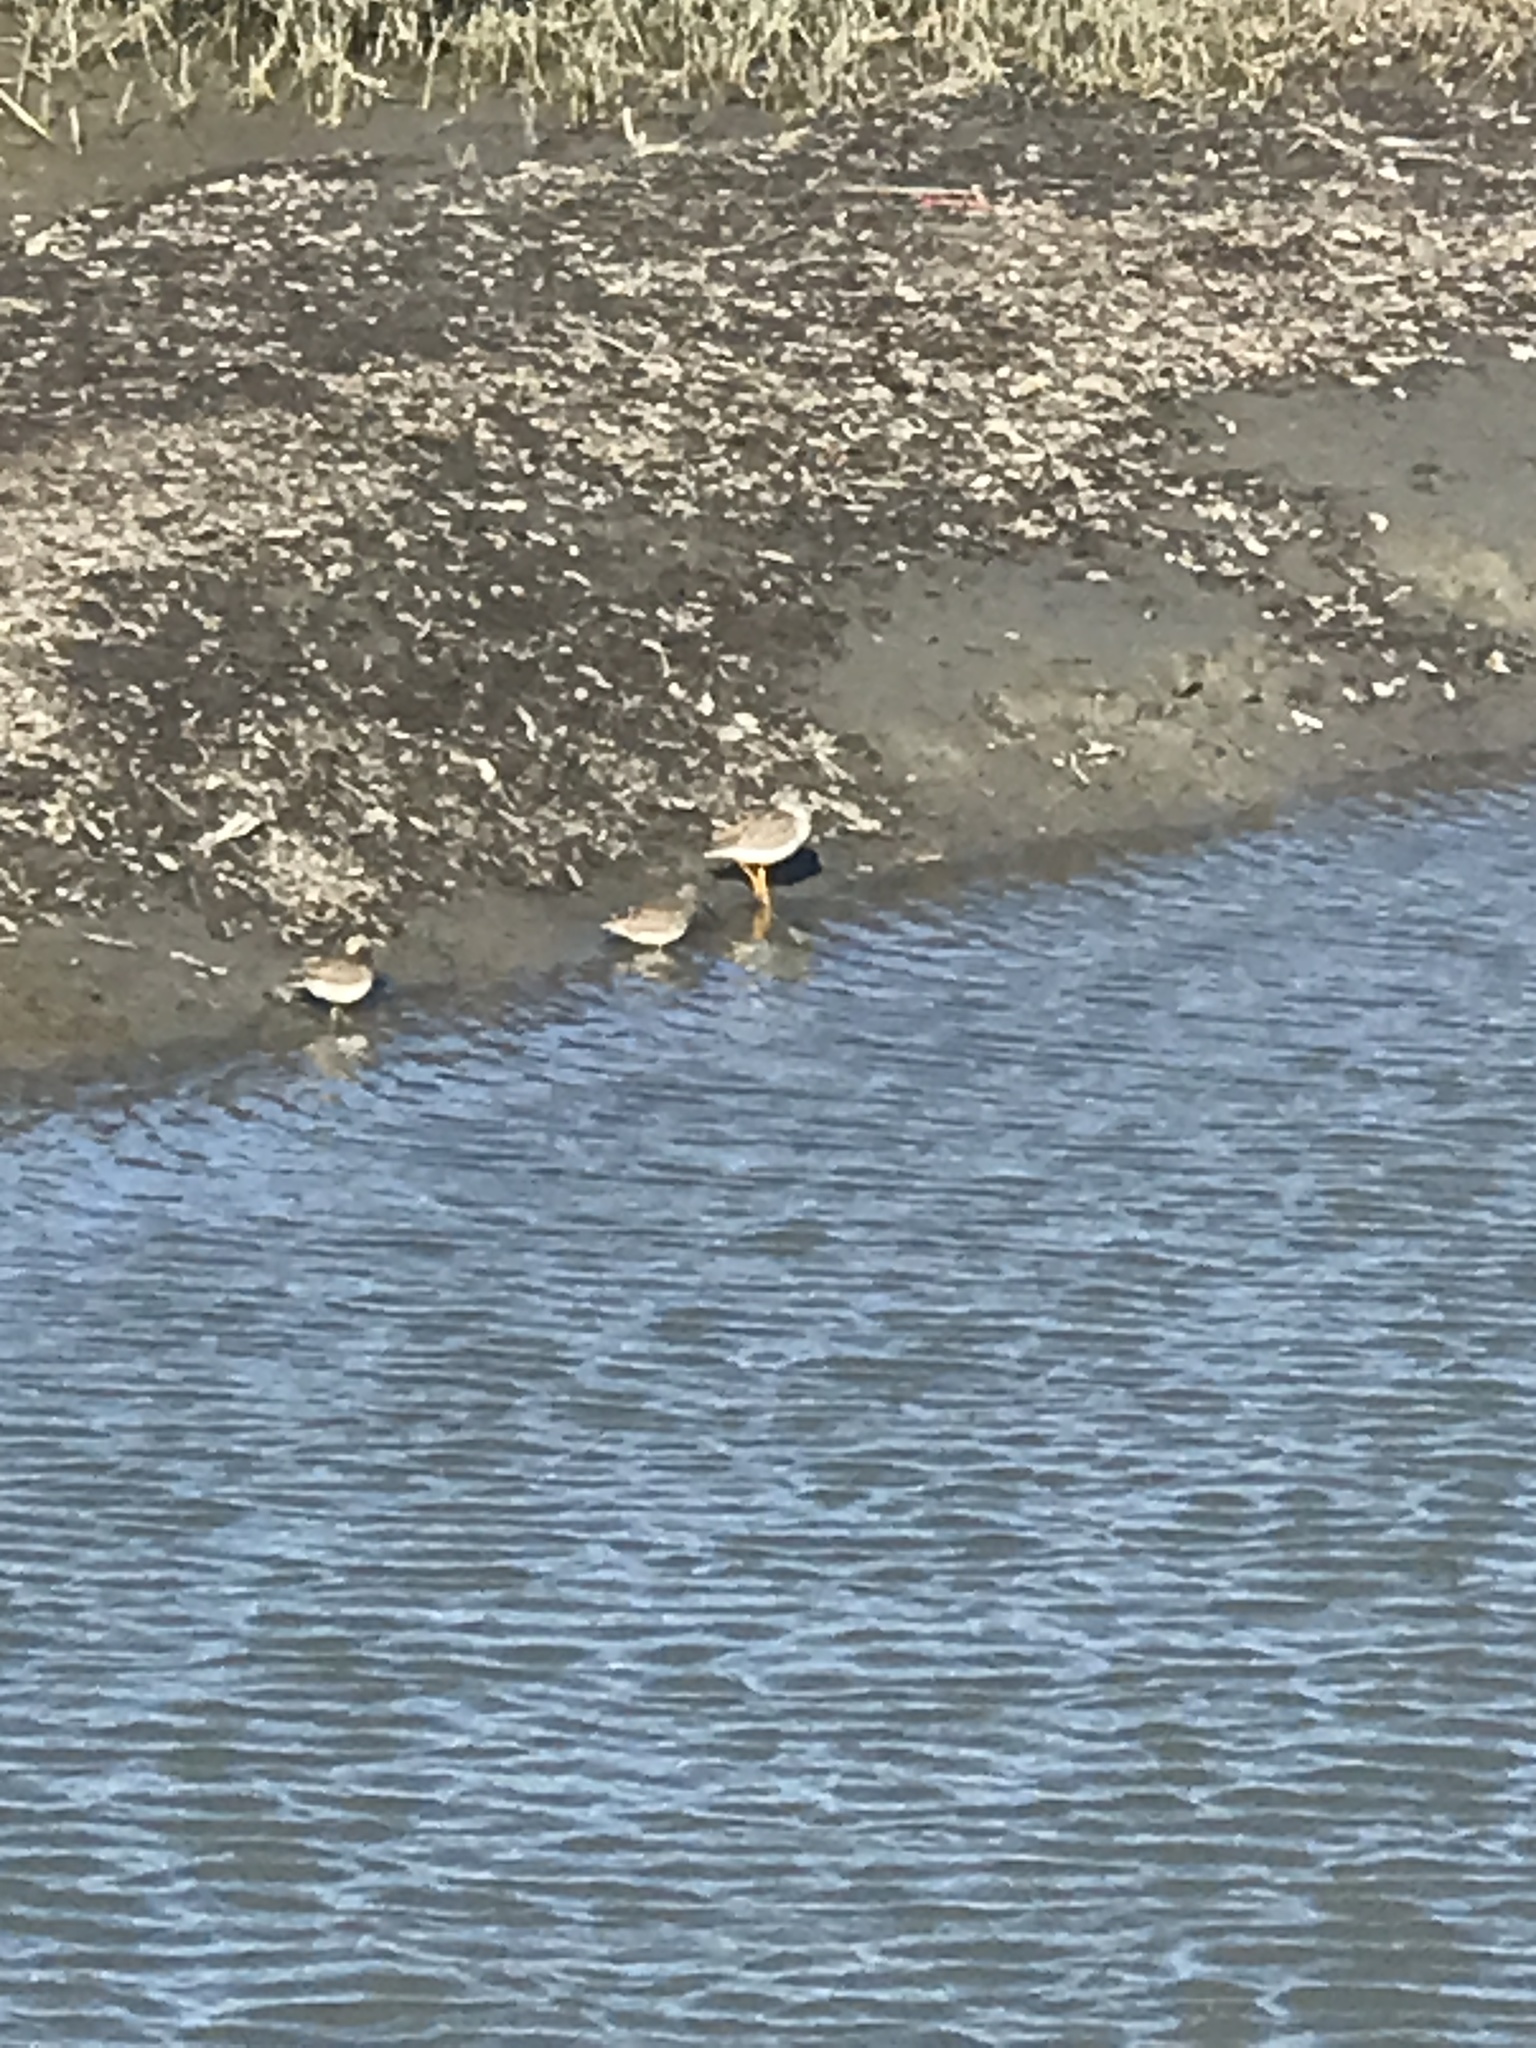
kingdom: Animalia
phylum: Chordata
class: Aves
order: Charadriiformes
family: Scolopacidae
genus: Tringa
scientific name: Tringa melanoleuca
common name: Greater yellowlegs
